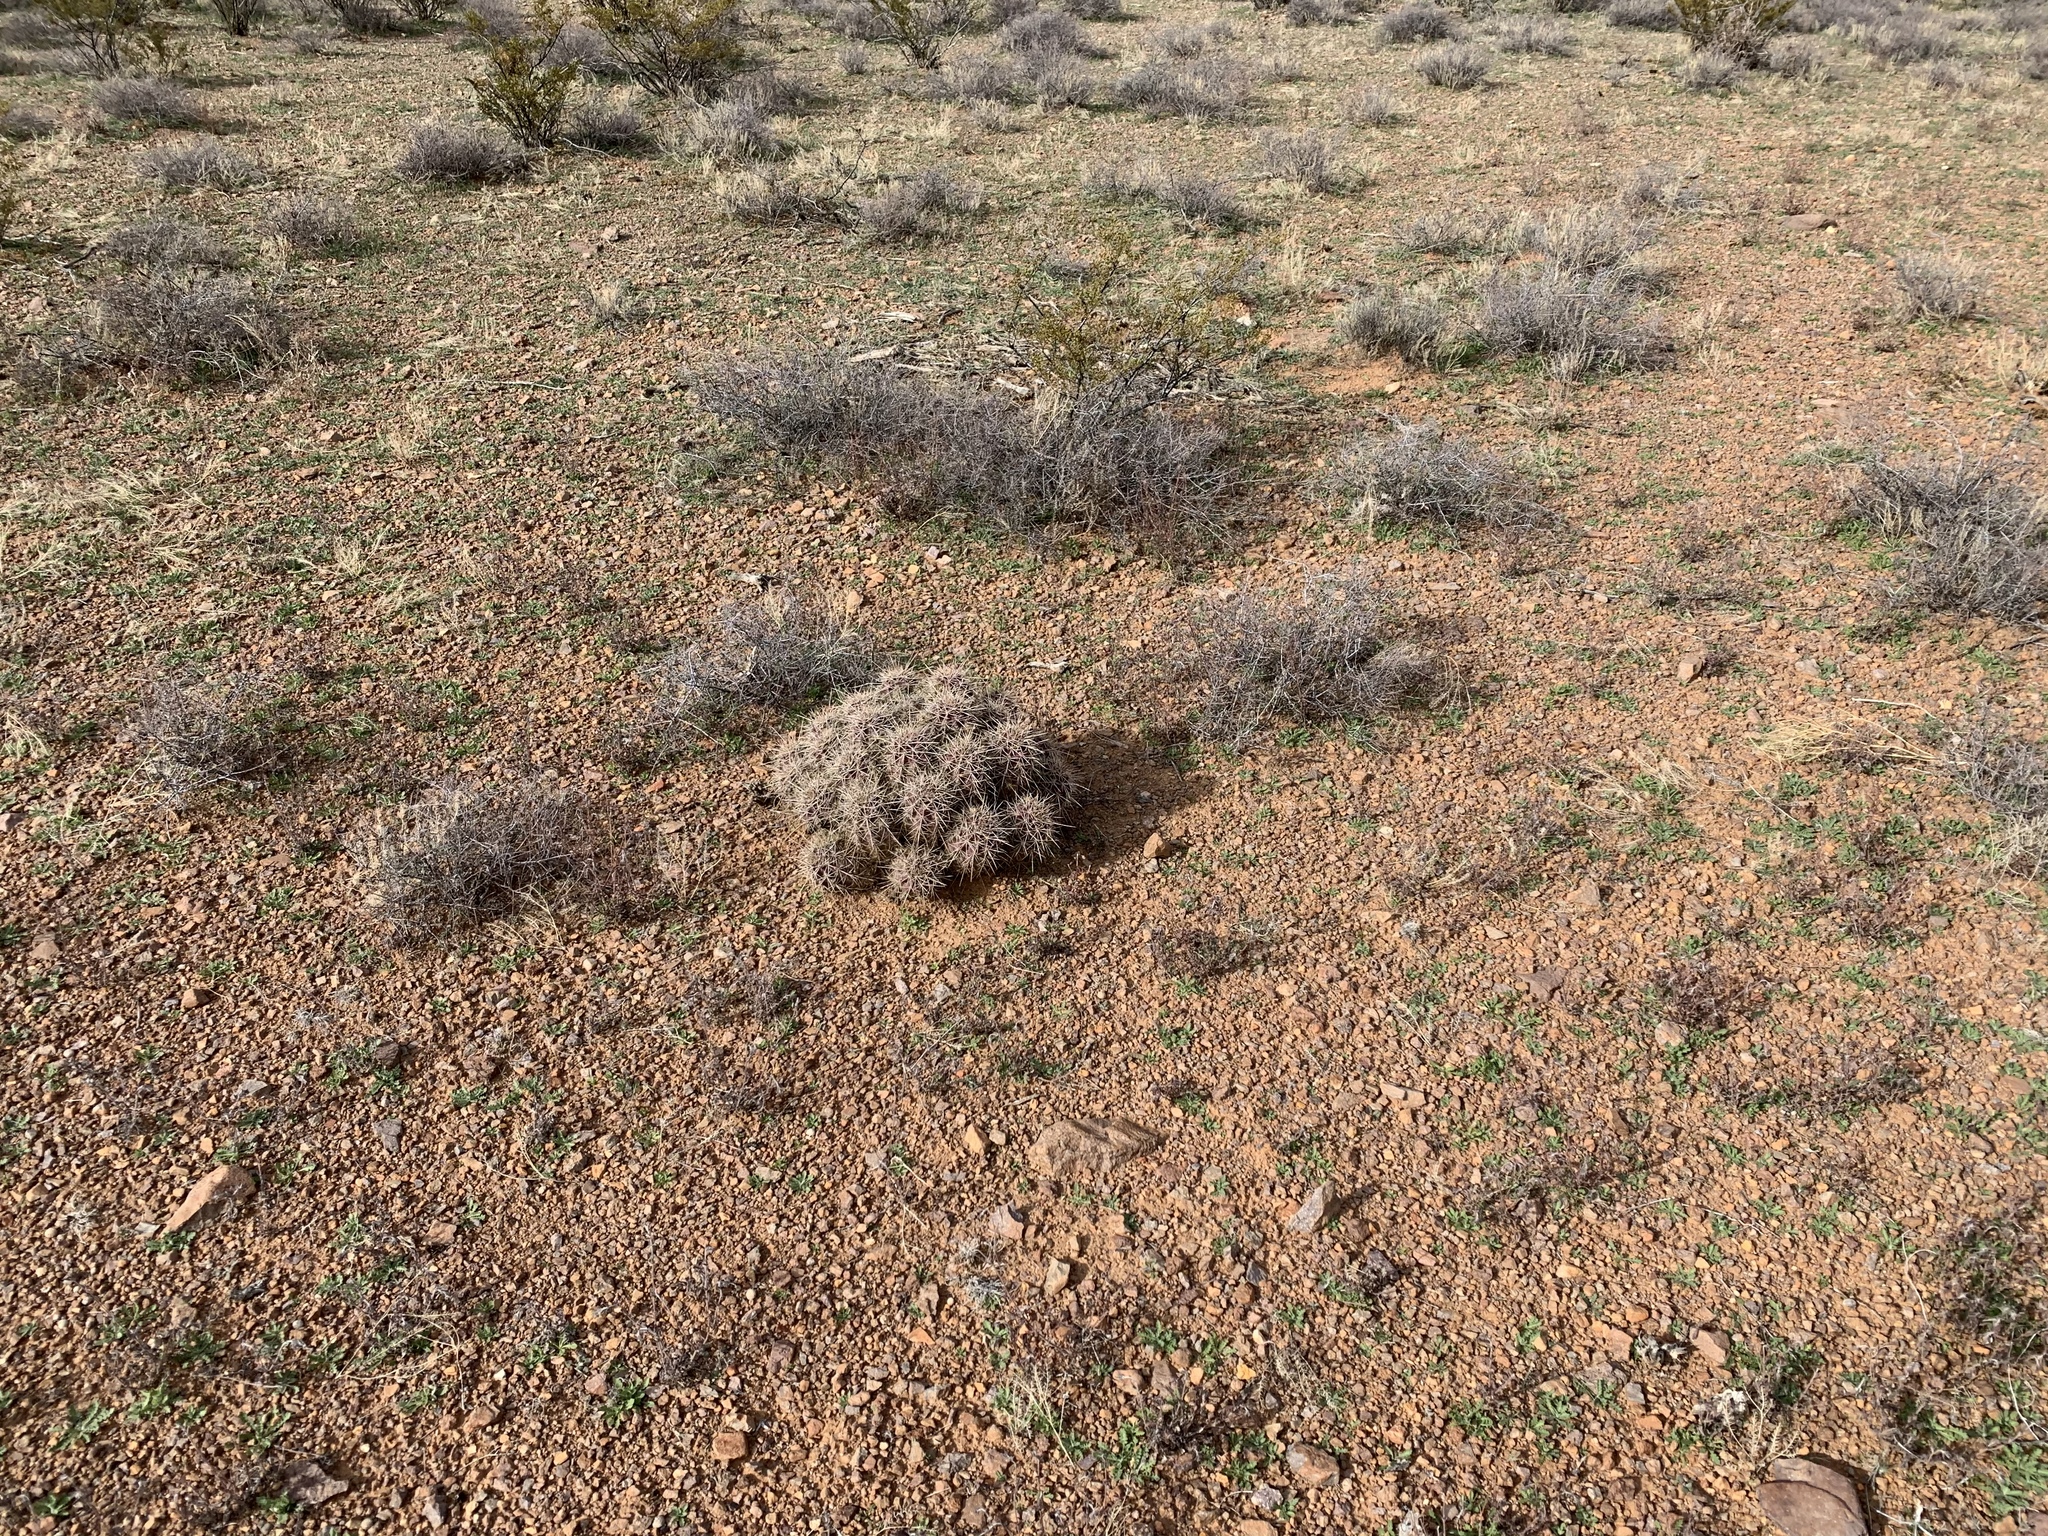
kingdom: Plantae
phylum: Tracheophyta
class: Magnoliopsida
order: Caryophyllales
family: Cactaceae
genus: Echinocereus
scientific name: Echinocereus coccineus
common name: Scarlet hedgehog cactus
